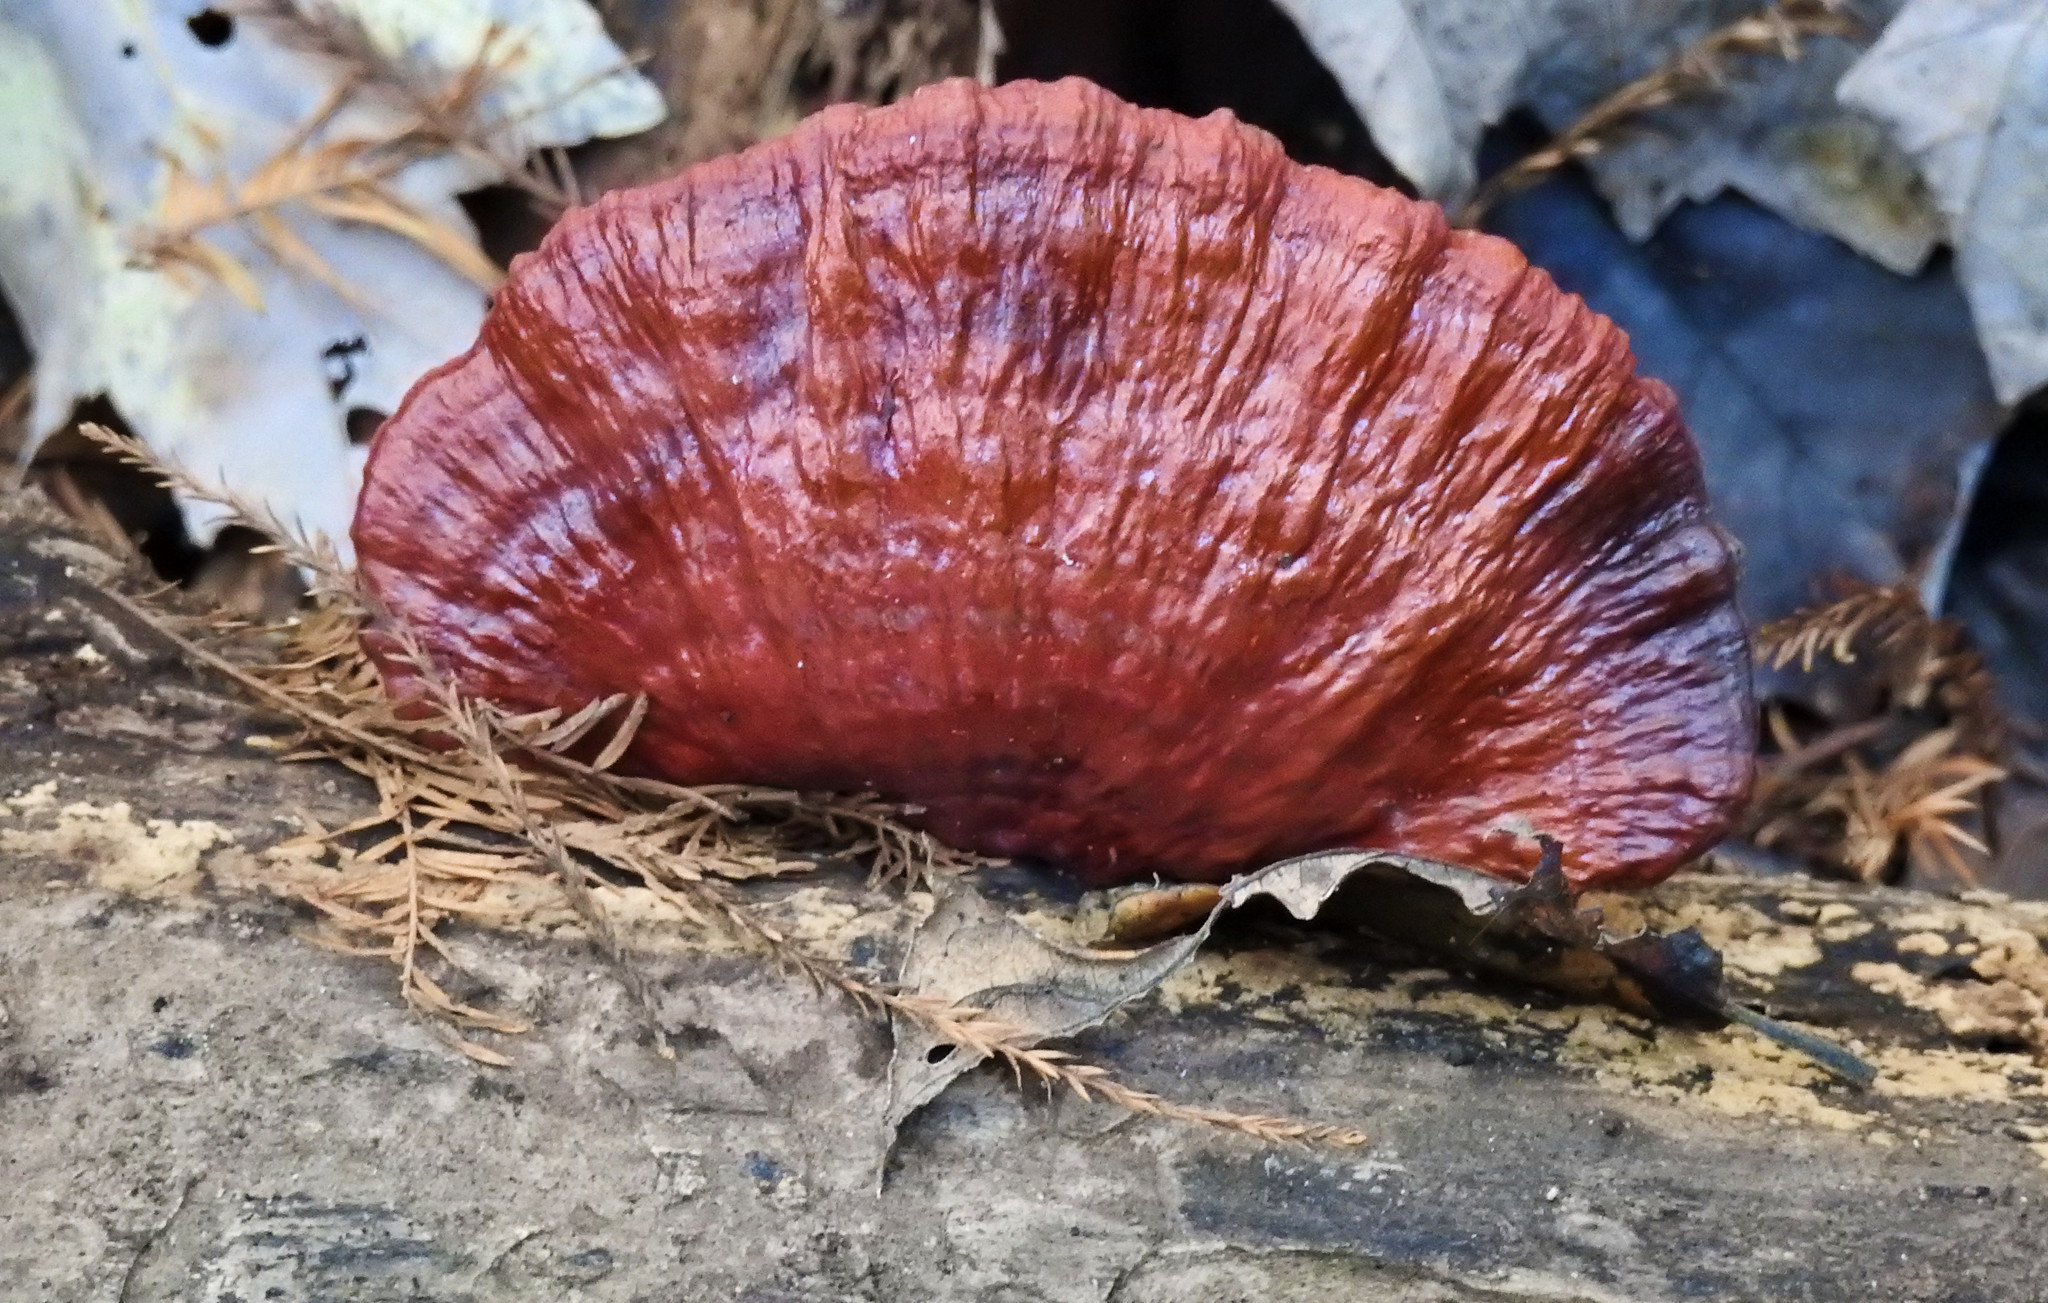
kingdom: Fungi
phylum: Basidiomycota
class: Agaricomycetes
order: Polyporales
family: Polyporaceae
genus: Ganoderma
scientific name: Ganoderma resinaceum
